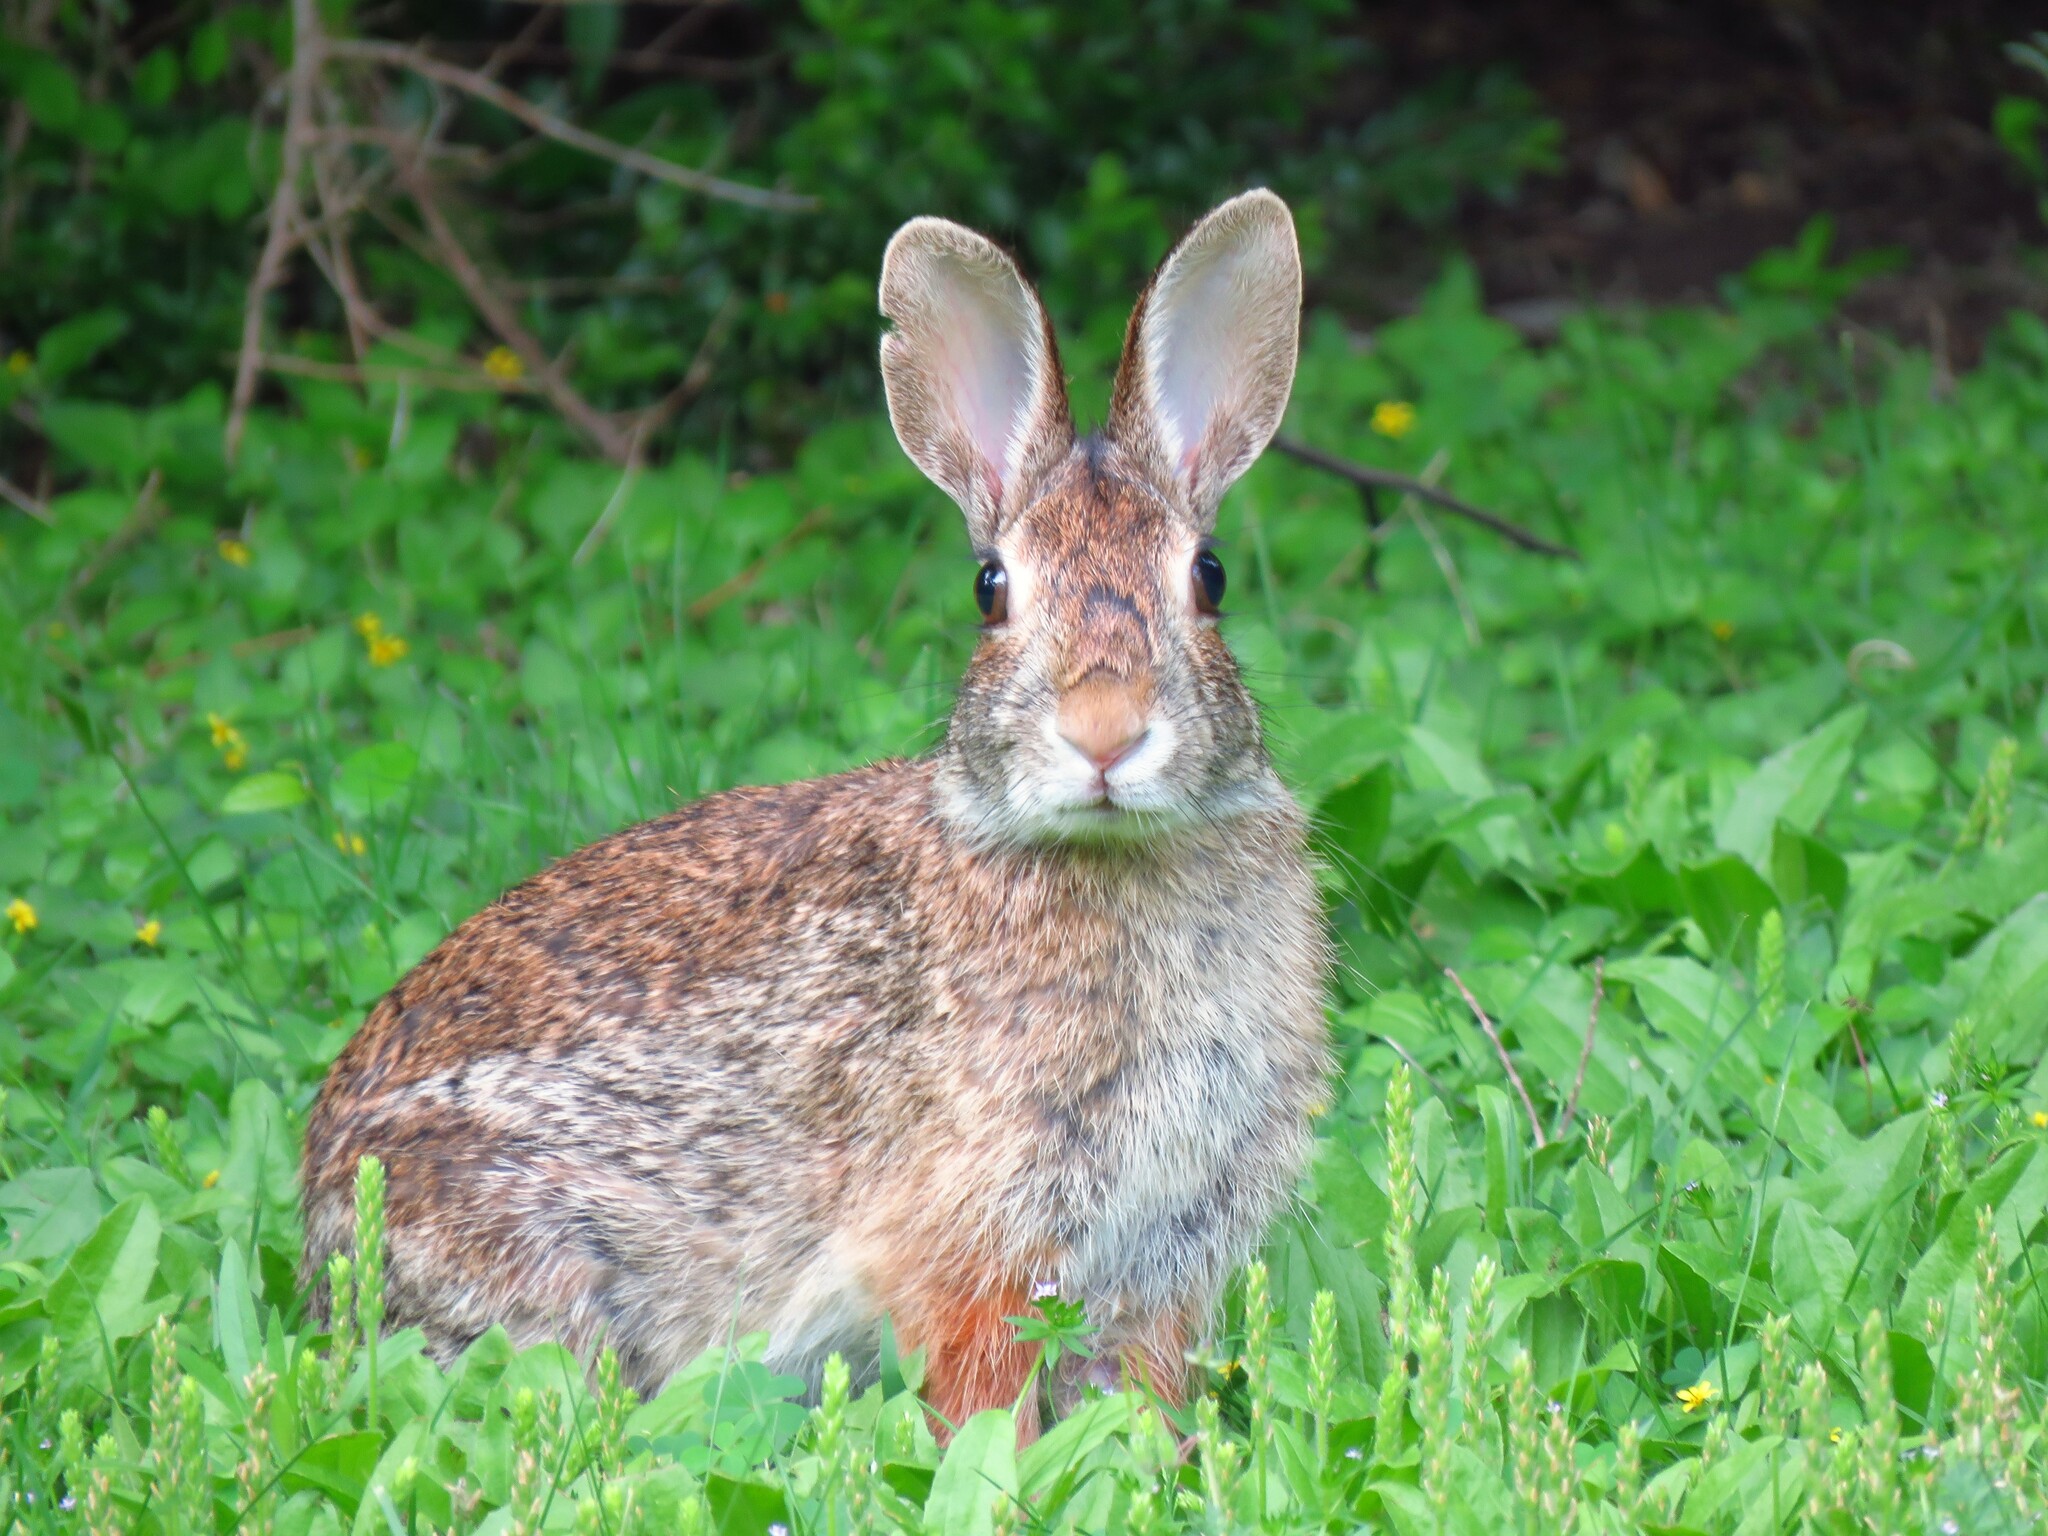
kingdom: Animalia
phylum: Chordata
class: Mammalia
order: Lagomorpha
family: Leporidae
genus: Sylvilagus
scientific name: Sylvilagus floridanus
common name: Eastern cottontail
